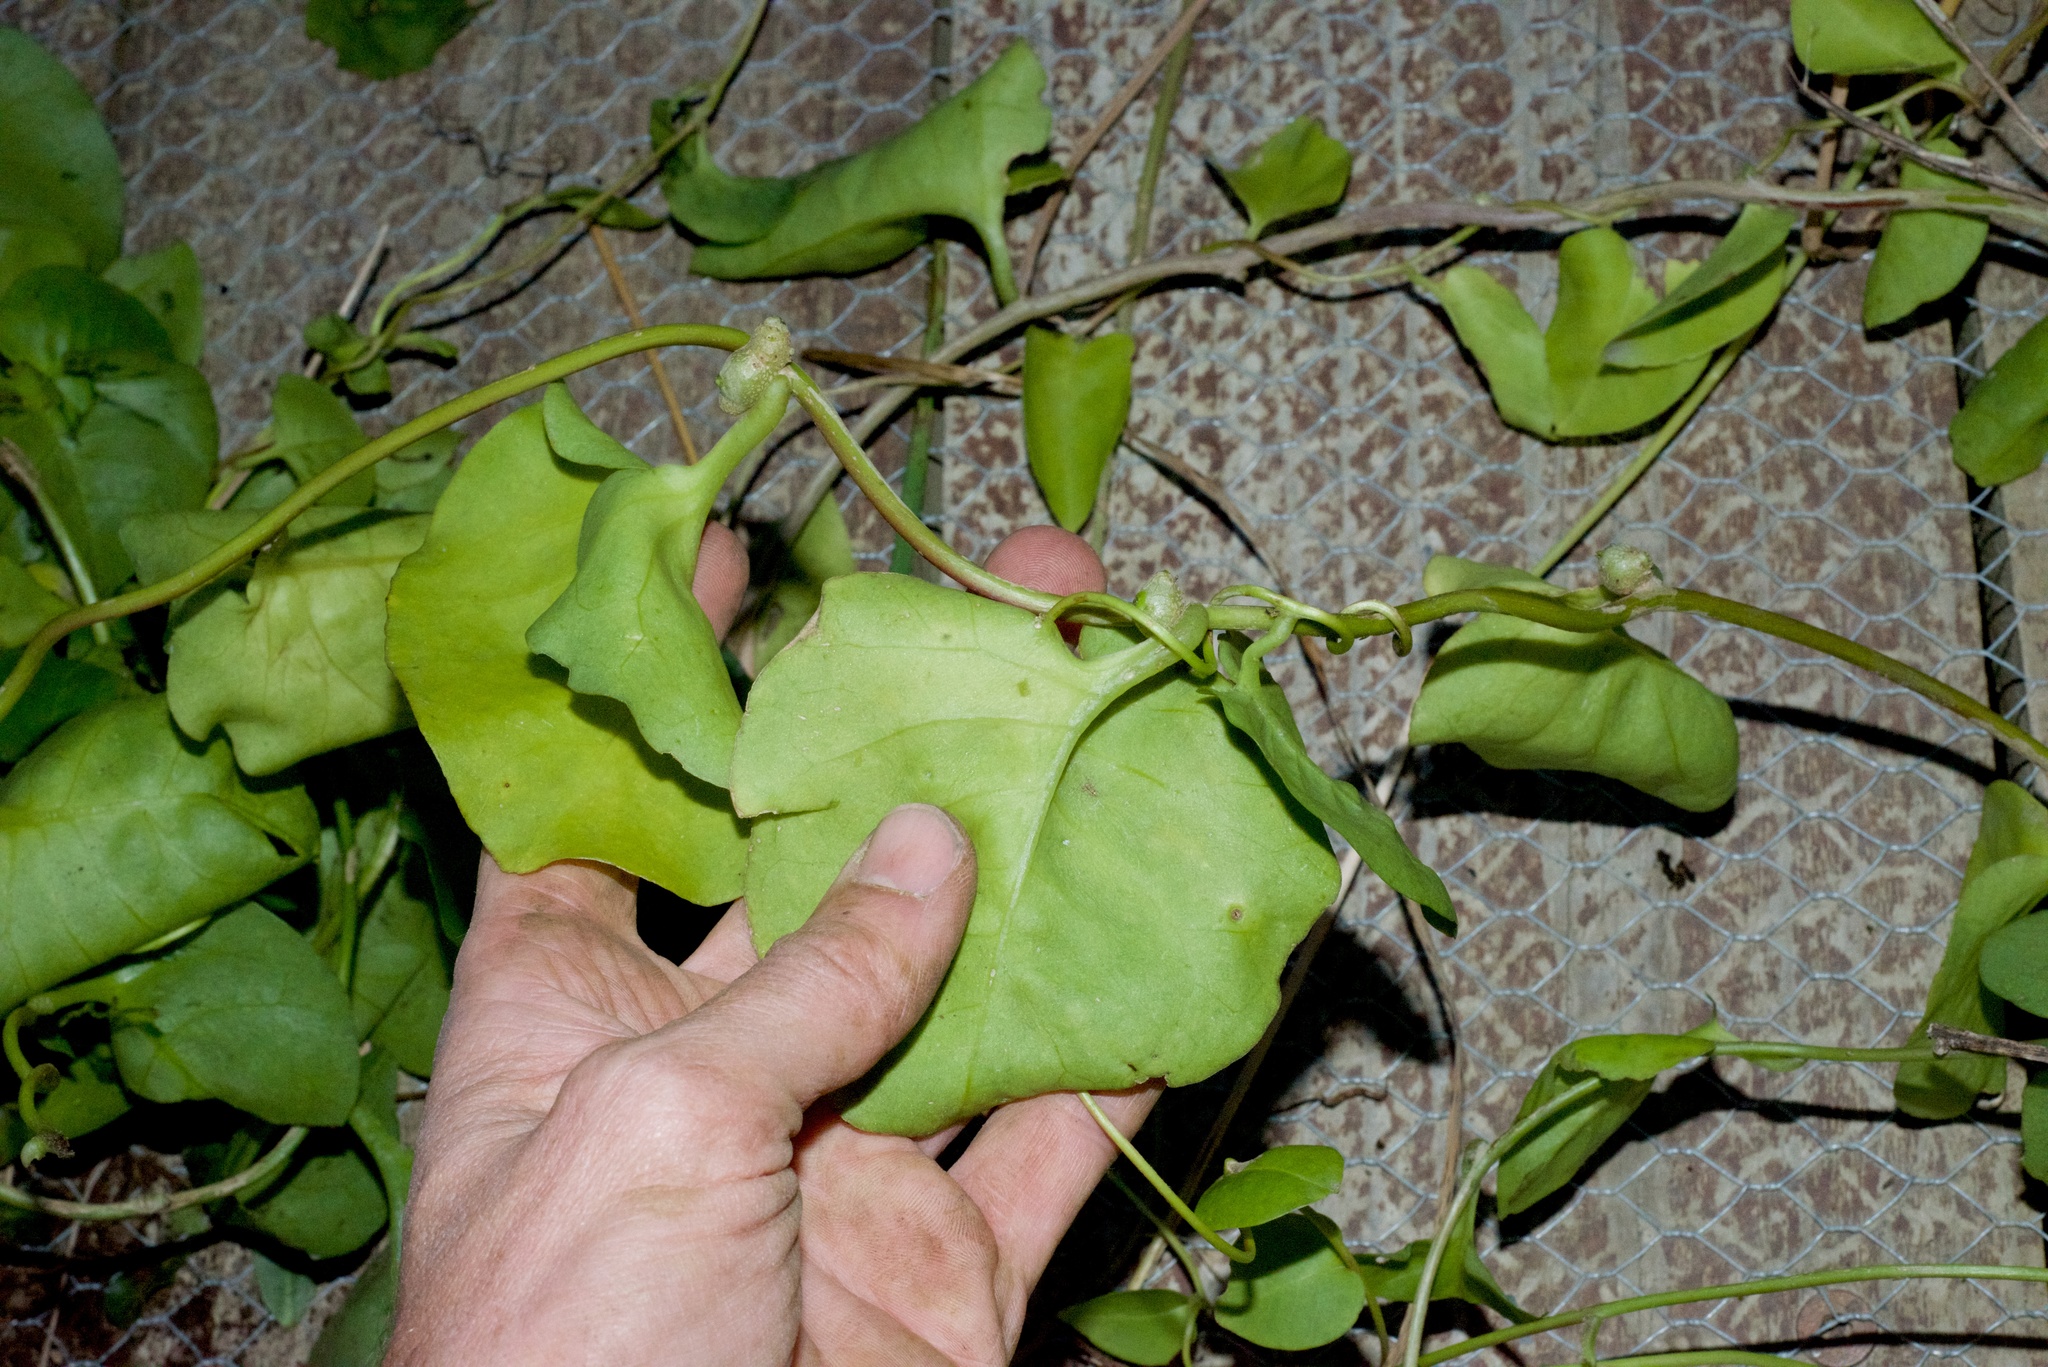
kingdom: Plantae
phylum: Tracheophyta
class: Magnoliopsida
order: Caryophyllales
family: Basellaceae
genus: Anredera
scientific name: Anredera cordifolia
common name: Heartleaf madeiravine
